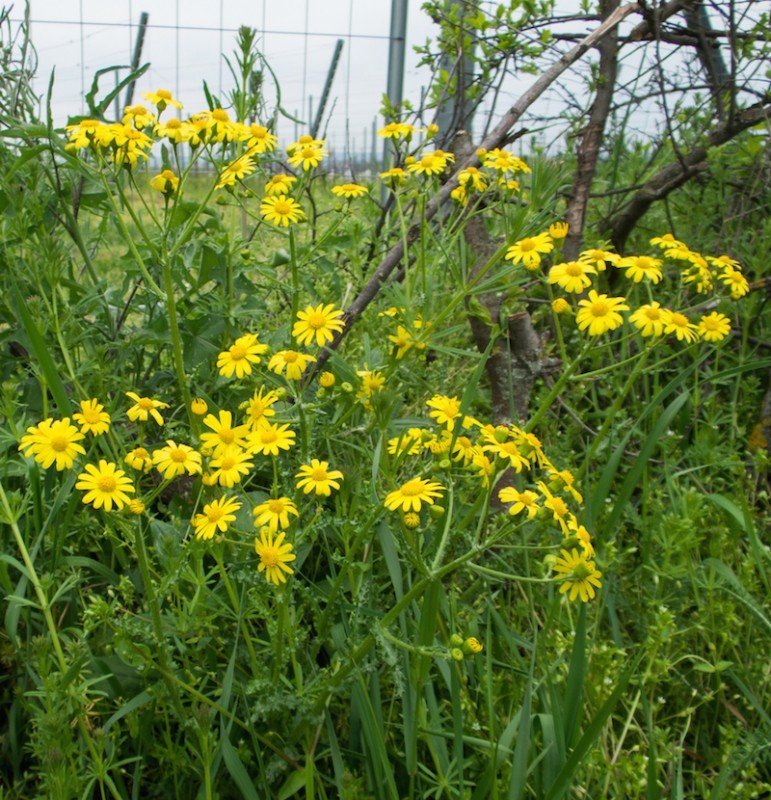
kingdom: Plantae
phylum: Tracheophyta
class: Magnoliopsida
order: Asterales
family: Asteraceae
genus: Senecio
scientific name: Senecio vernalis
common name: Eastern groundsel
